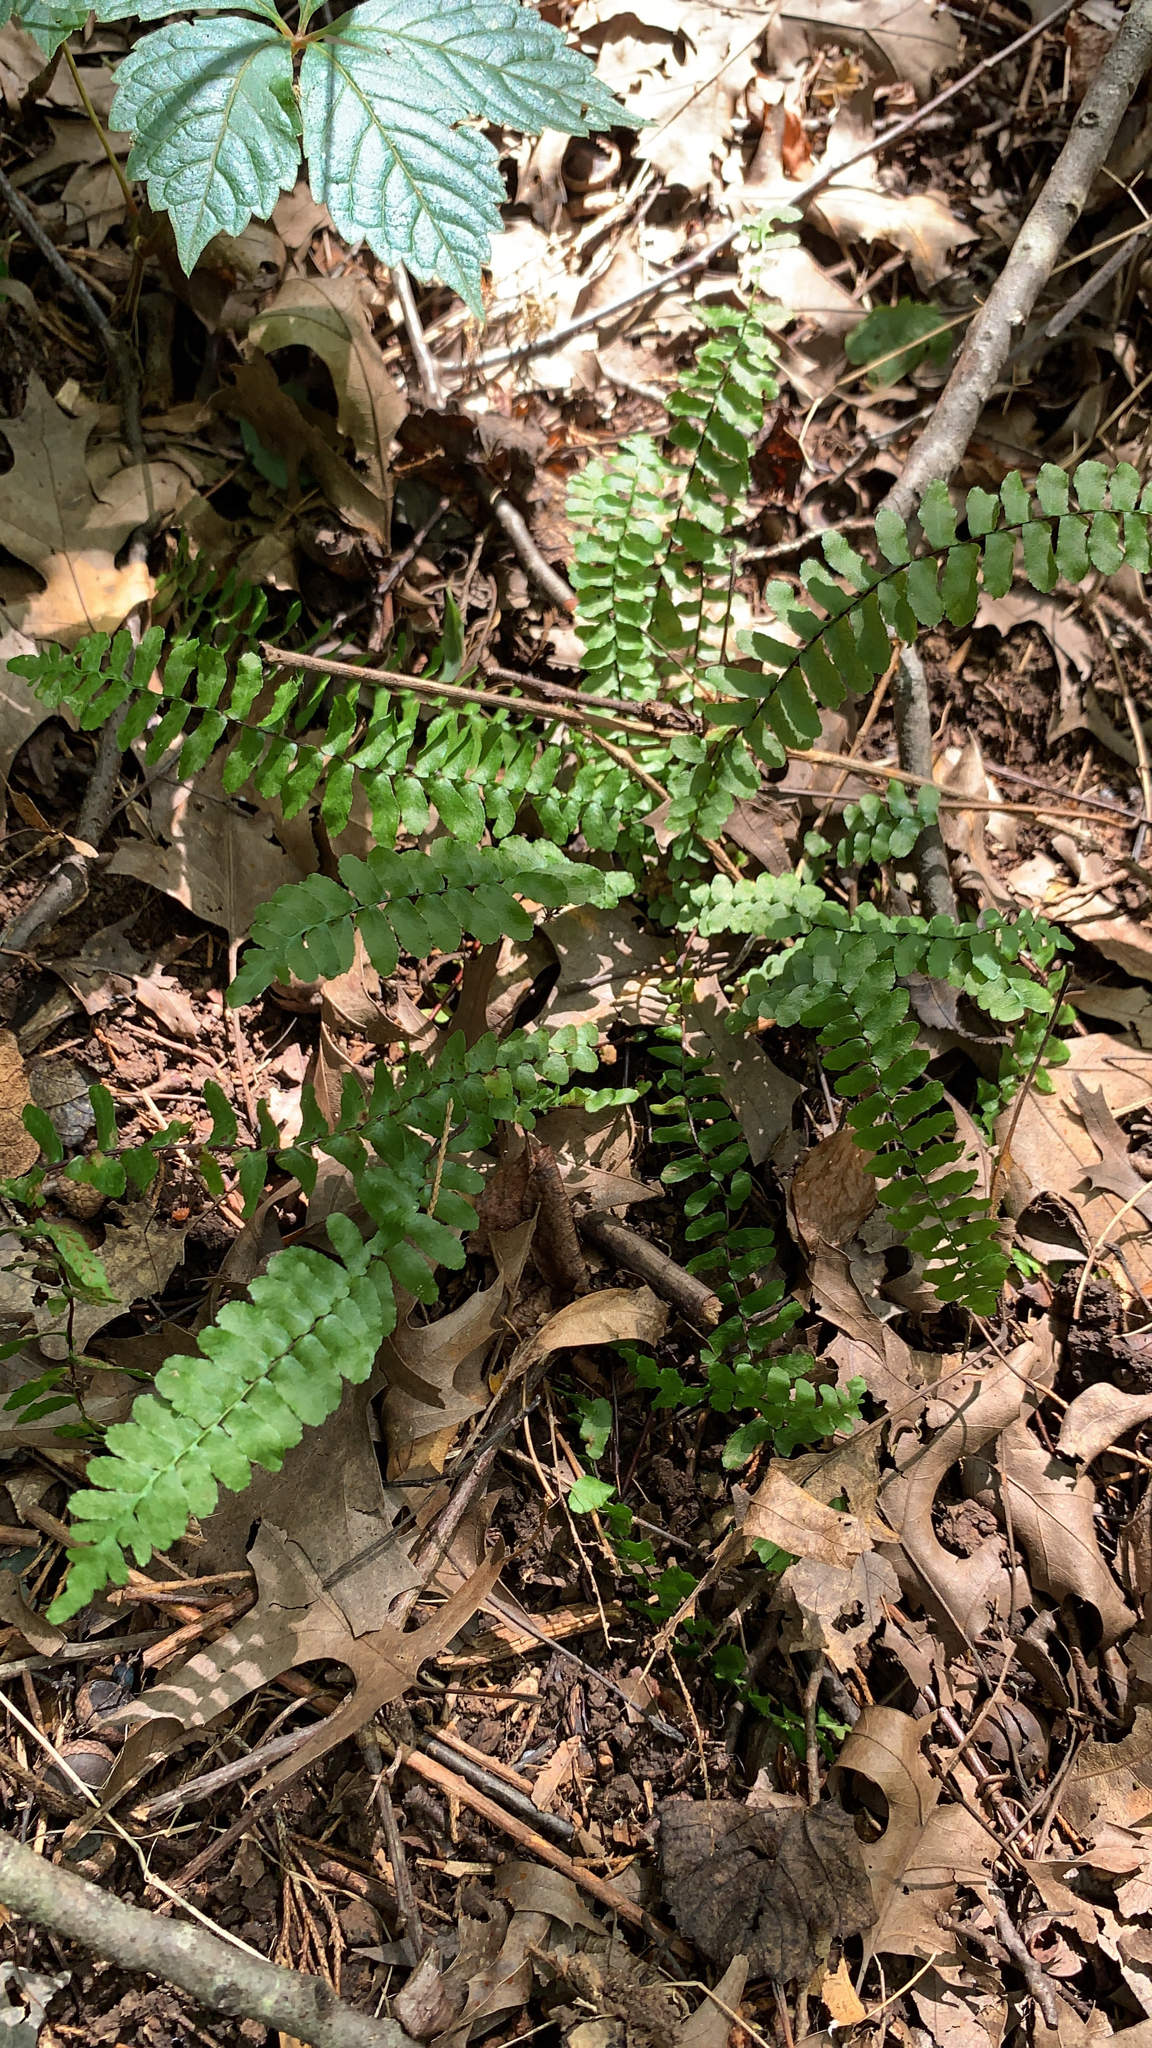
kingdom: Plantae
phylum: Tracheophyta
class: Polypodiopsida
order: Polypodiales
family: Aspleniaceae
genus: Asplenium
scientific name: Asplenium platyneuron
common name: Ebony spleenwort
